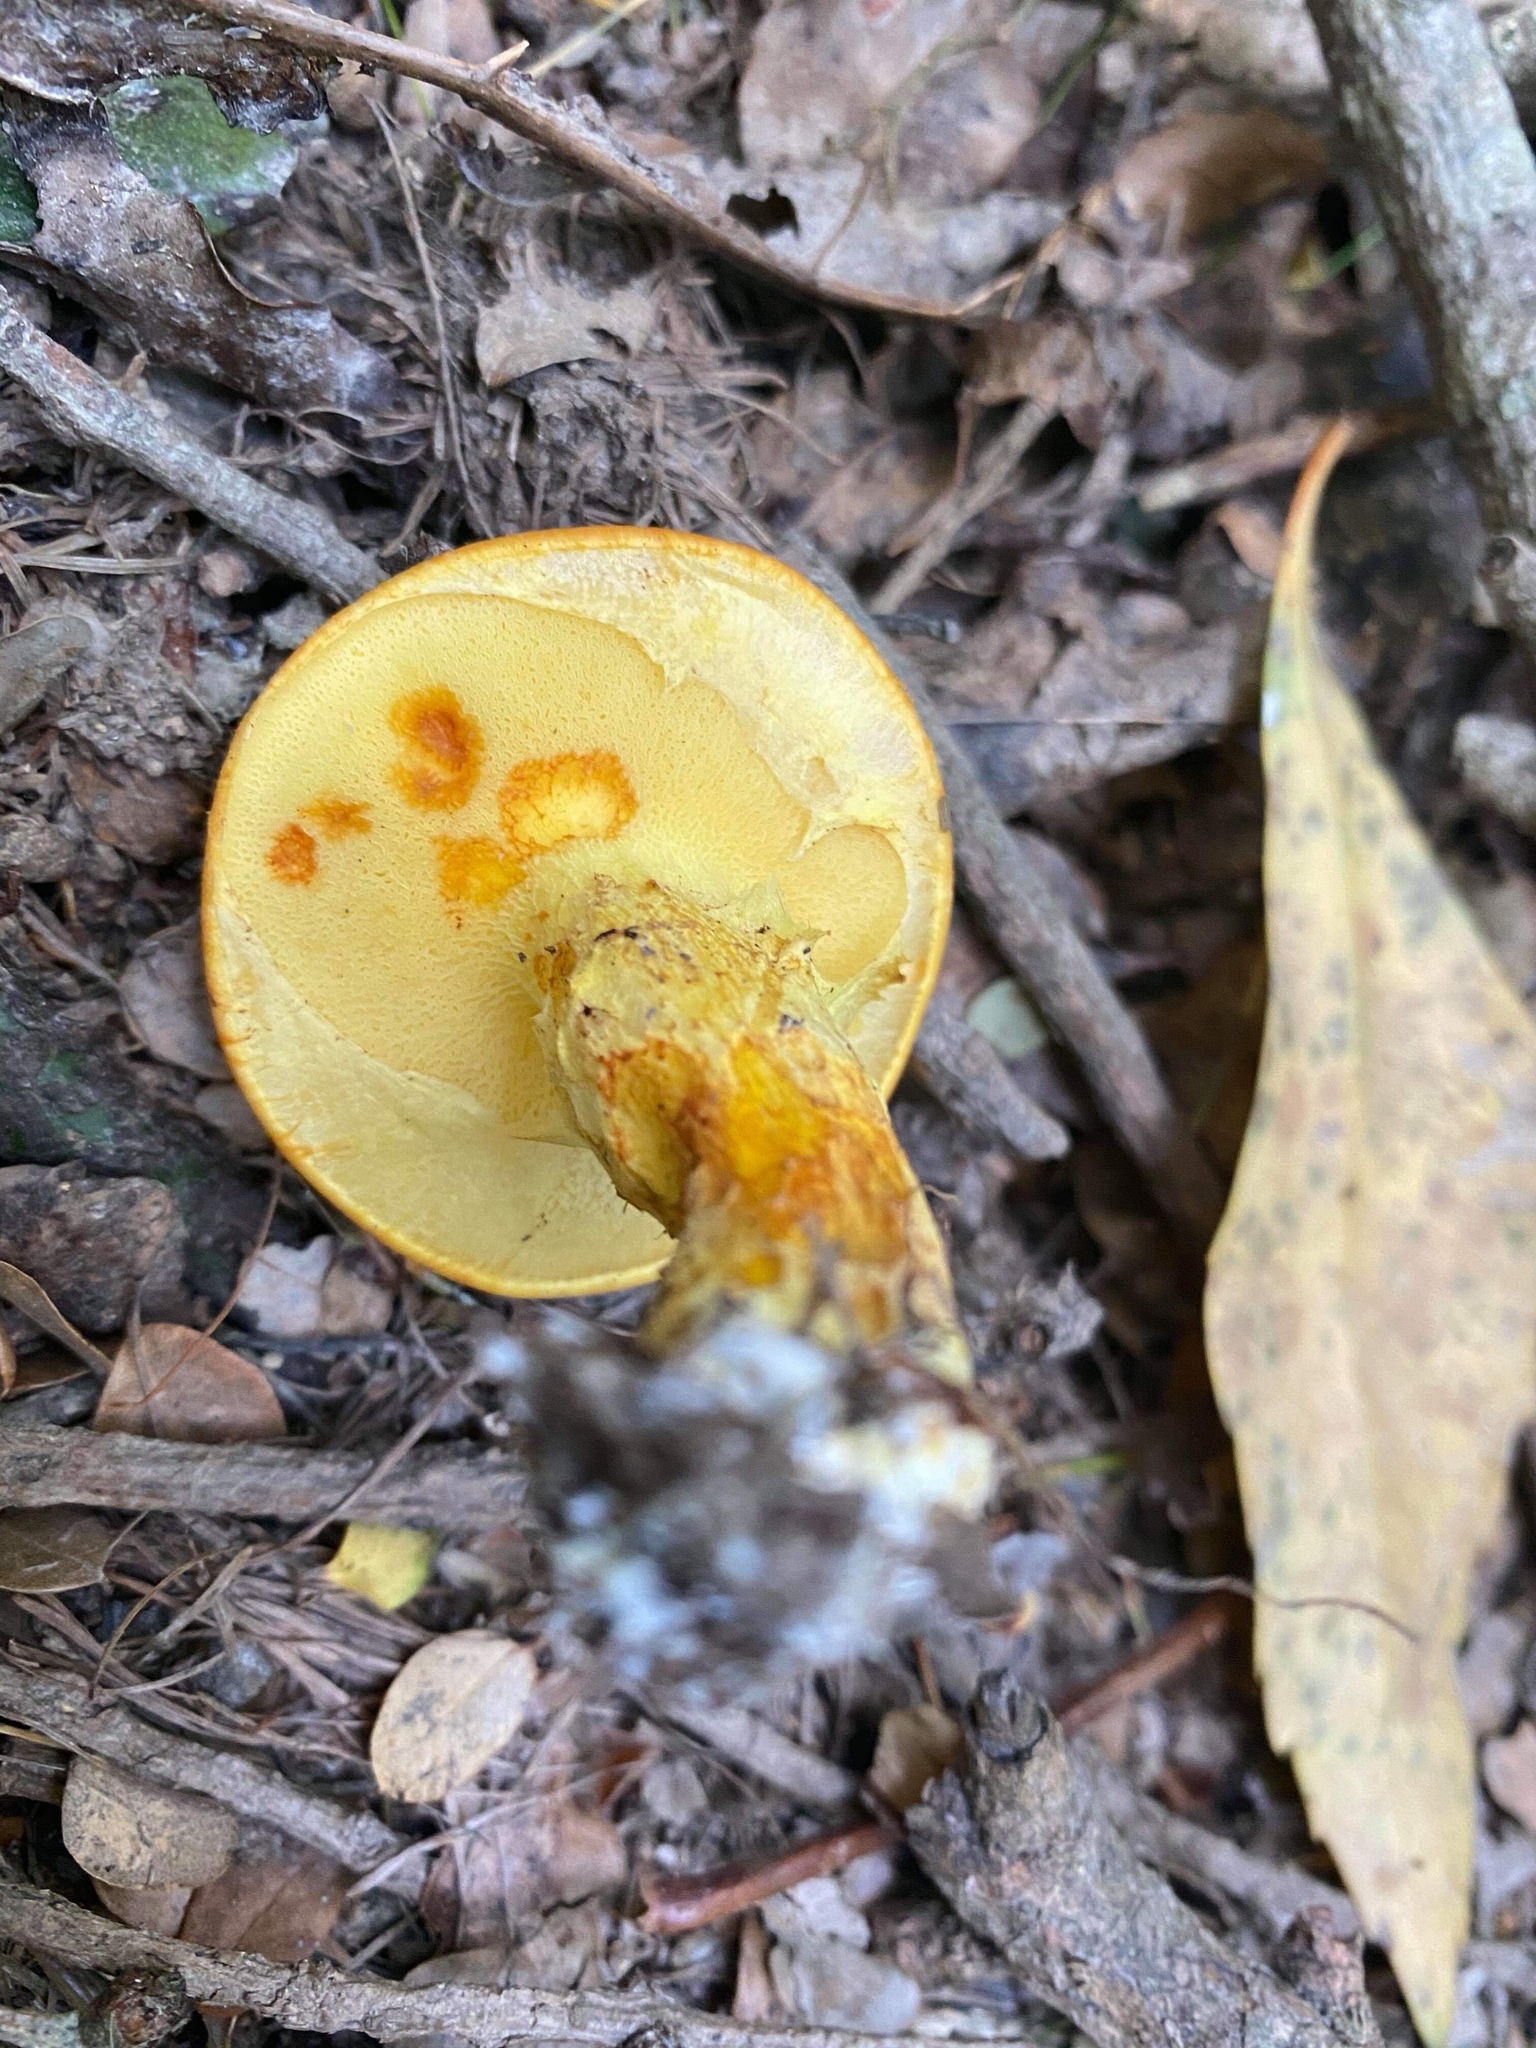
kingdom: Fungi
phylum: Basidiomycota
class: Agaricomycetes
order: Boletales
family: Suillaceae
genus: Suillus
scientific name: Suillus grevillei
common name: Larch bolete
